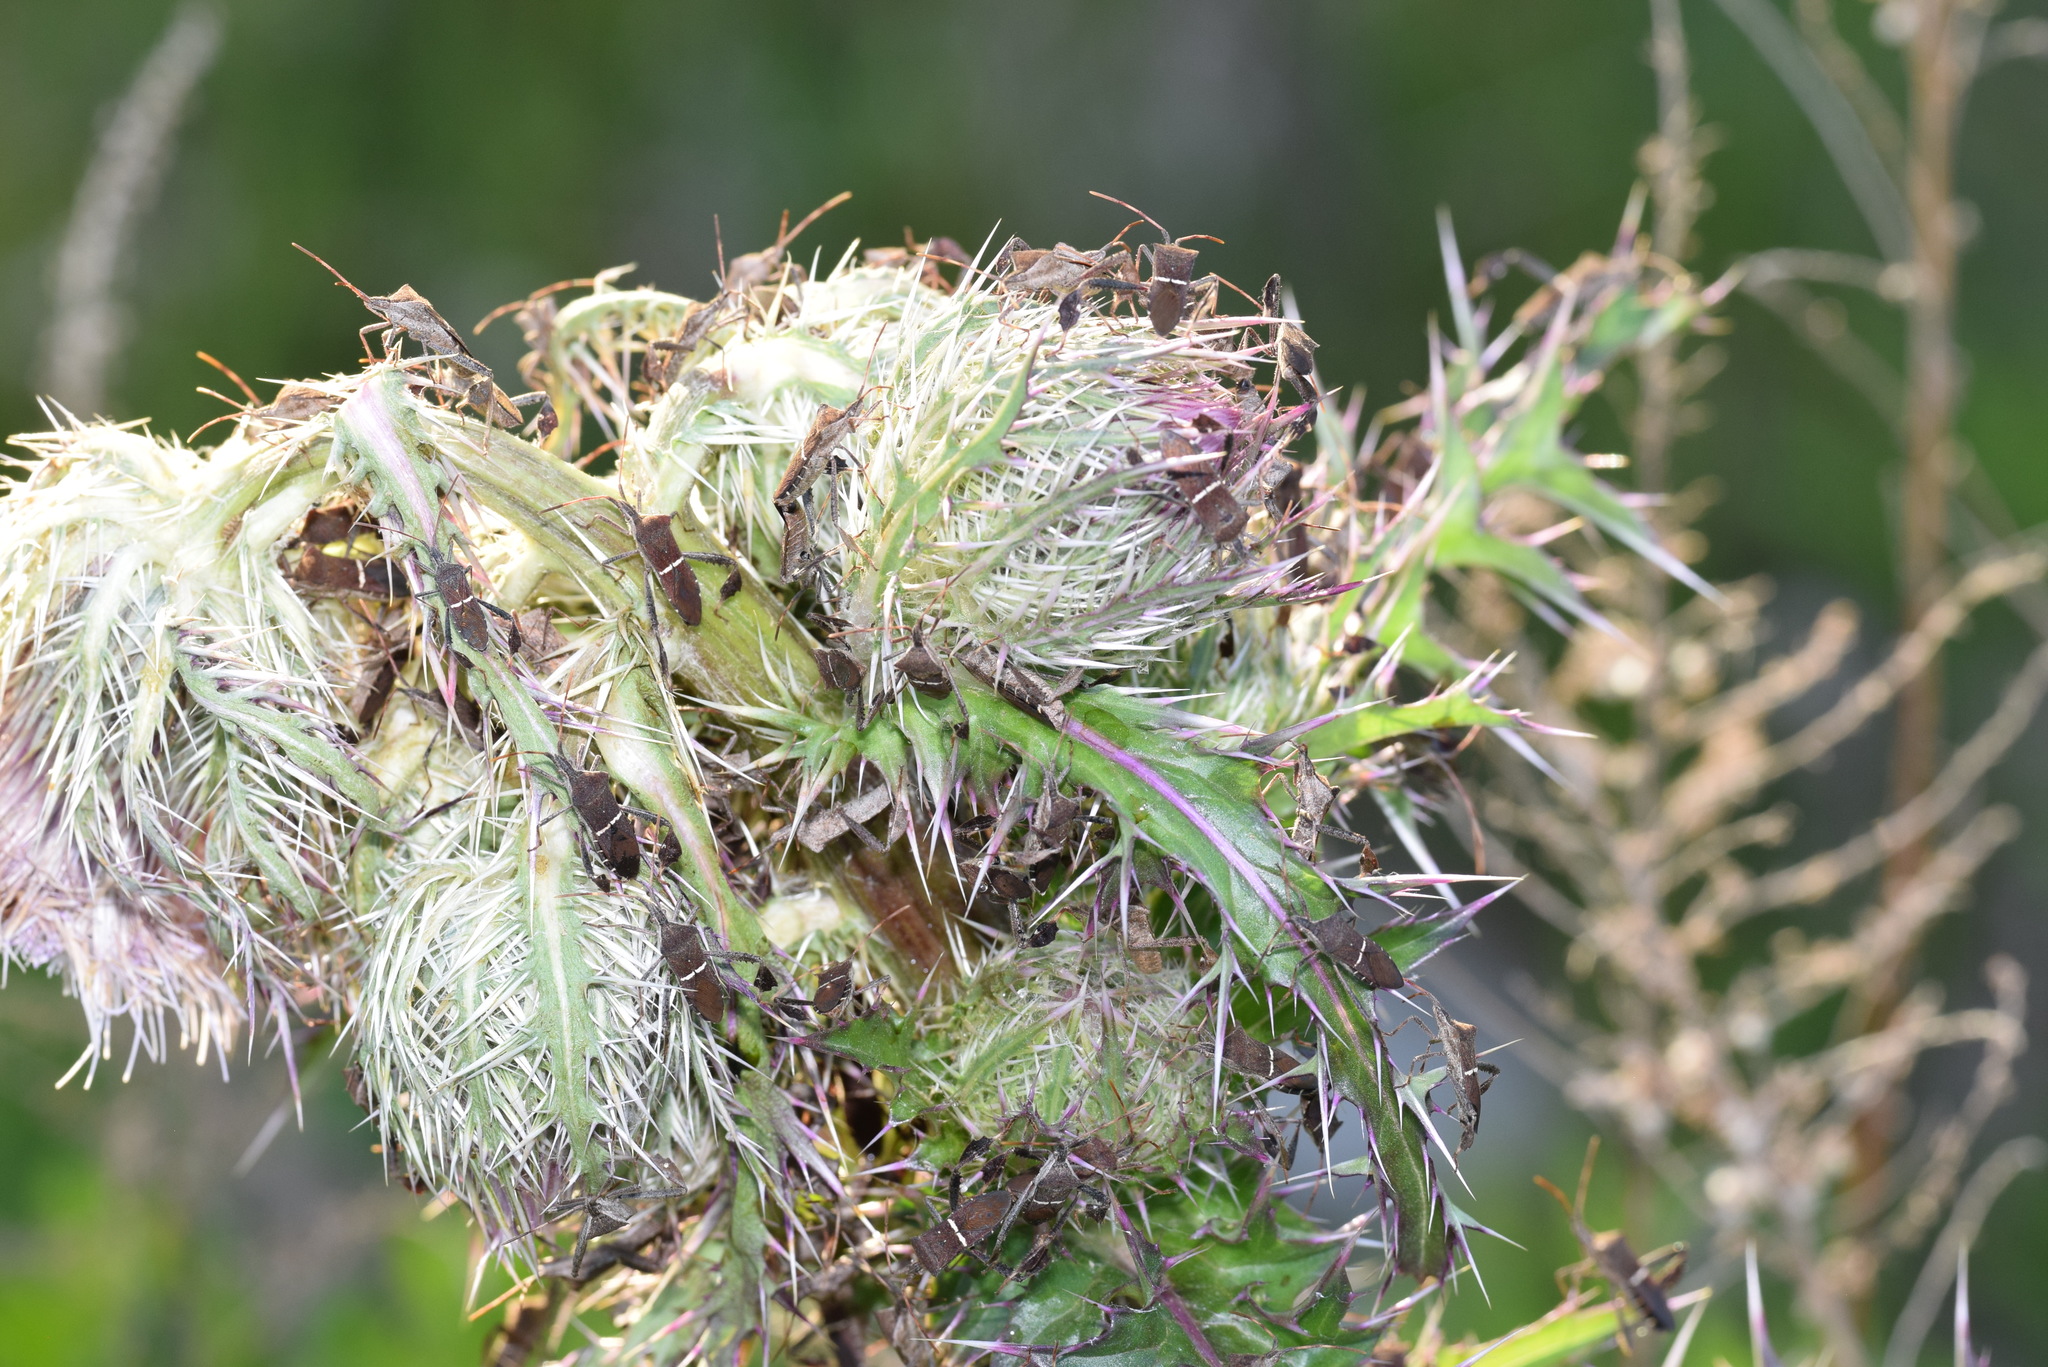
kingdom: Animalia
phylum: Arthropoda
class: Insecta
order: Hemiptera
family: Coreidae
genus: Leptoglossus
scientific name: Leptoglossus phyllopus
